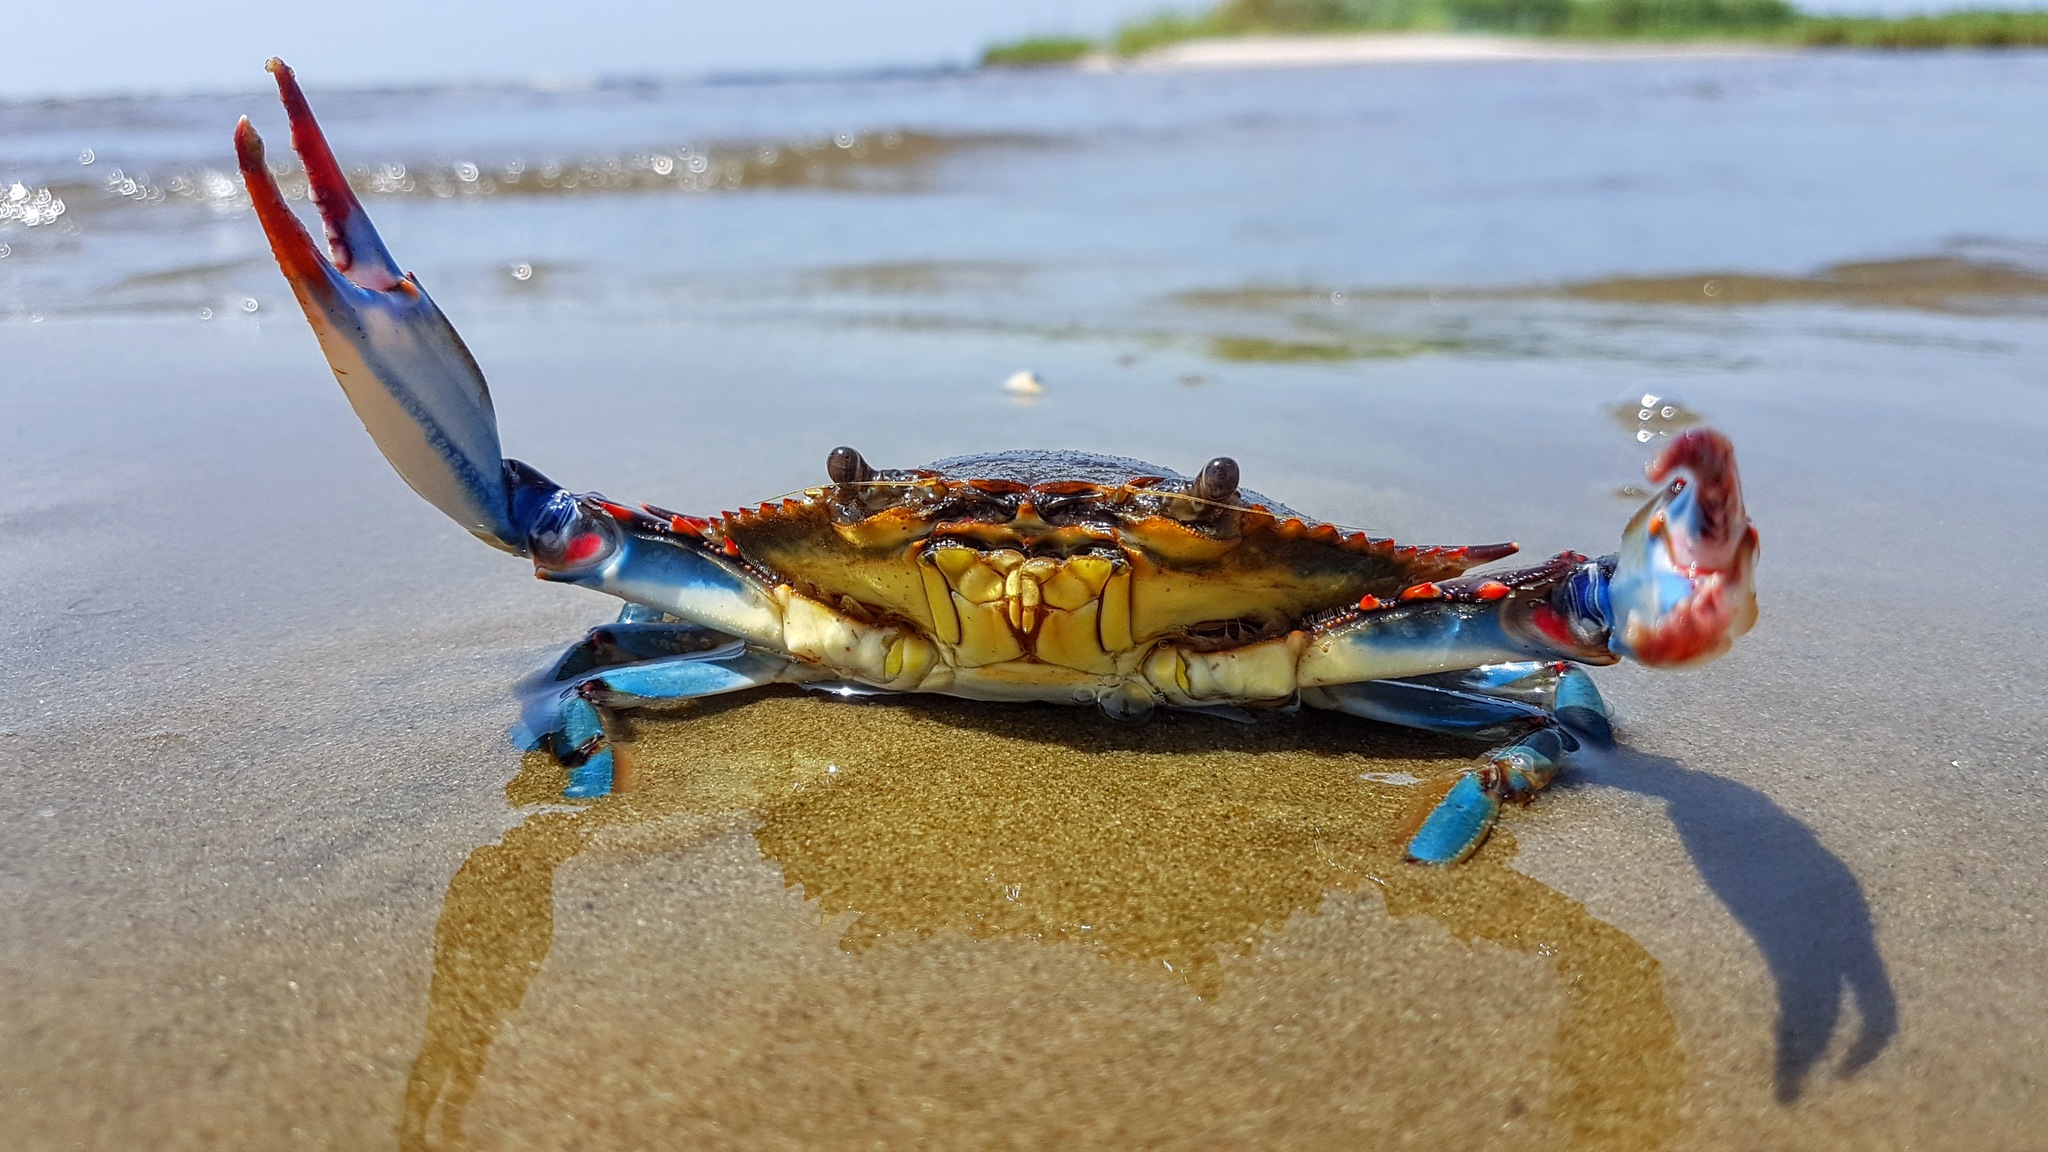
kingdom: Animalia
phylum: Arthropoda
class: Malacostraca
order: Decapoda
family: Portunidae
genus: Callinectes
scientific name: Callinectes sapidus
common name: Blue crab
